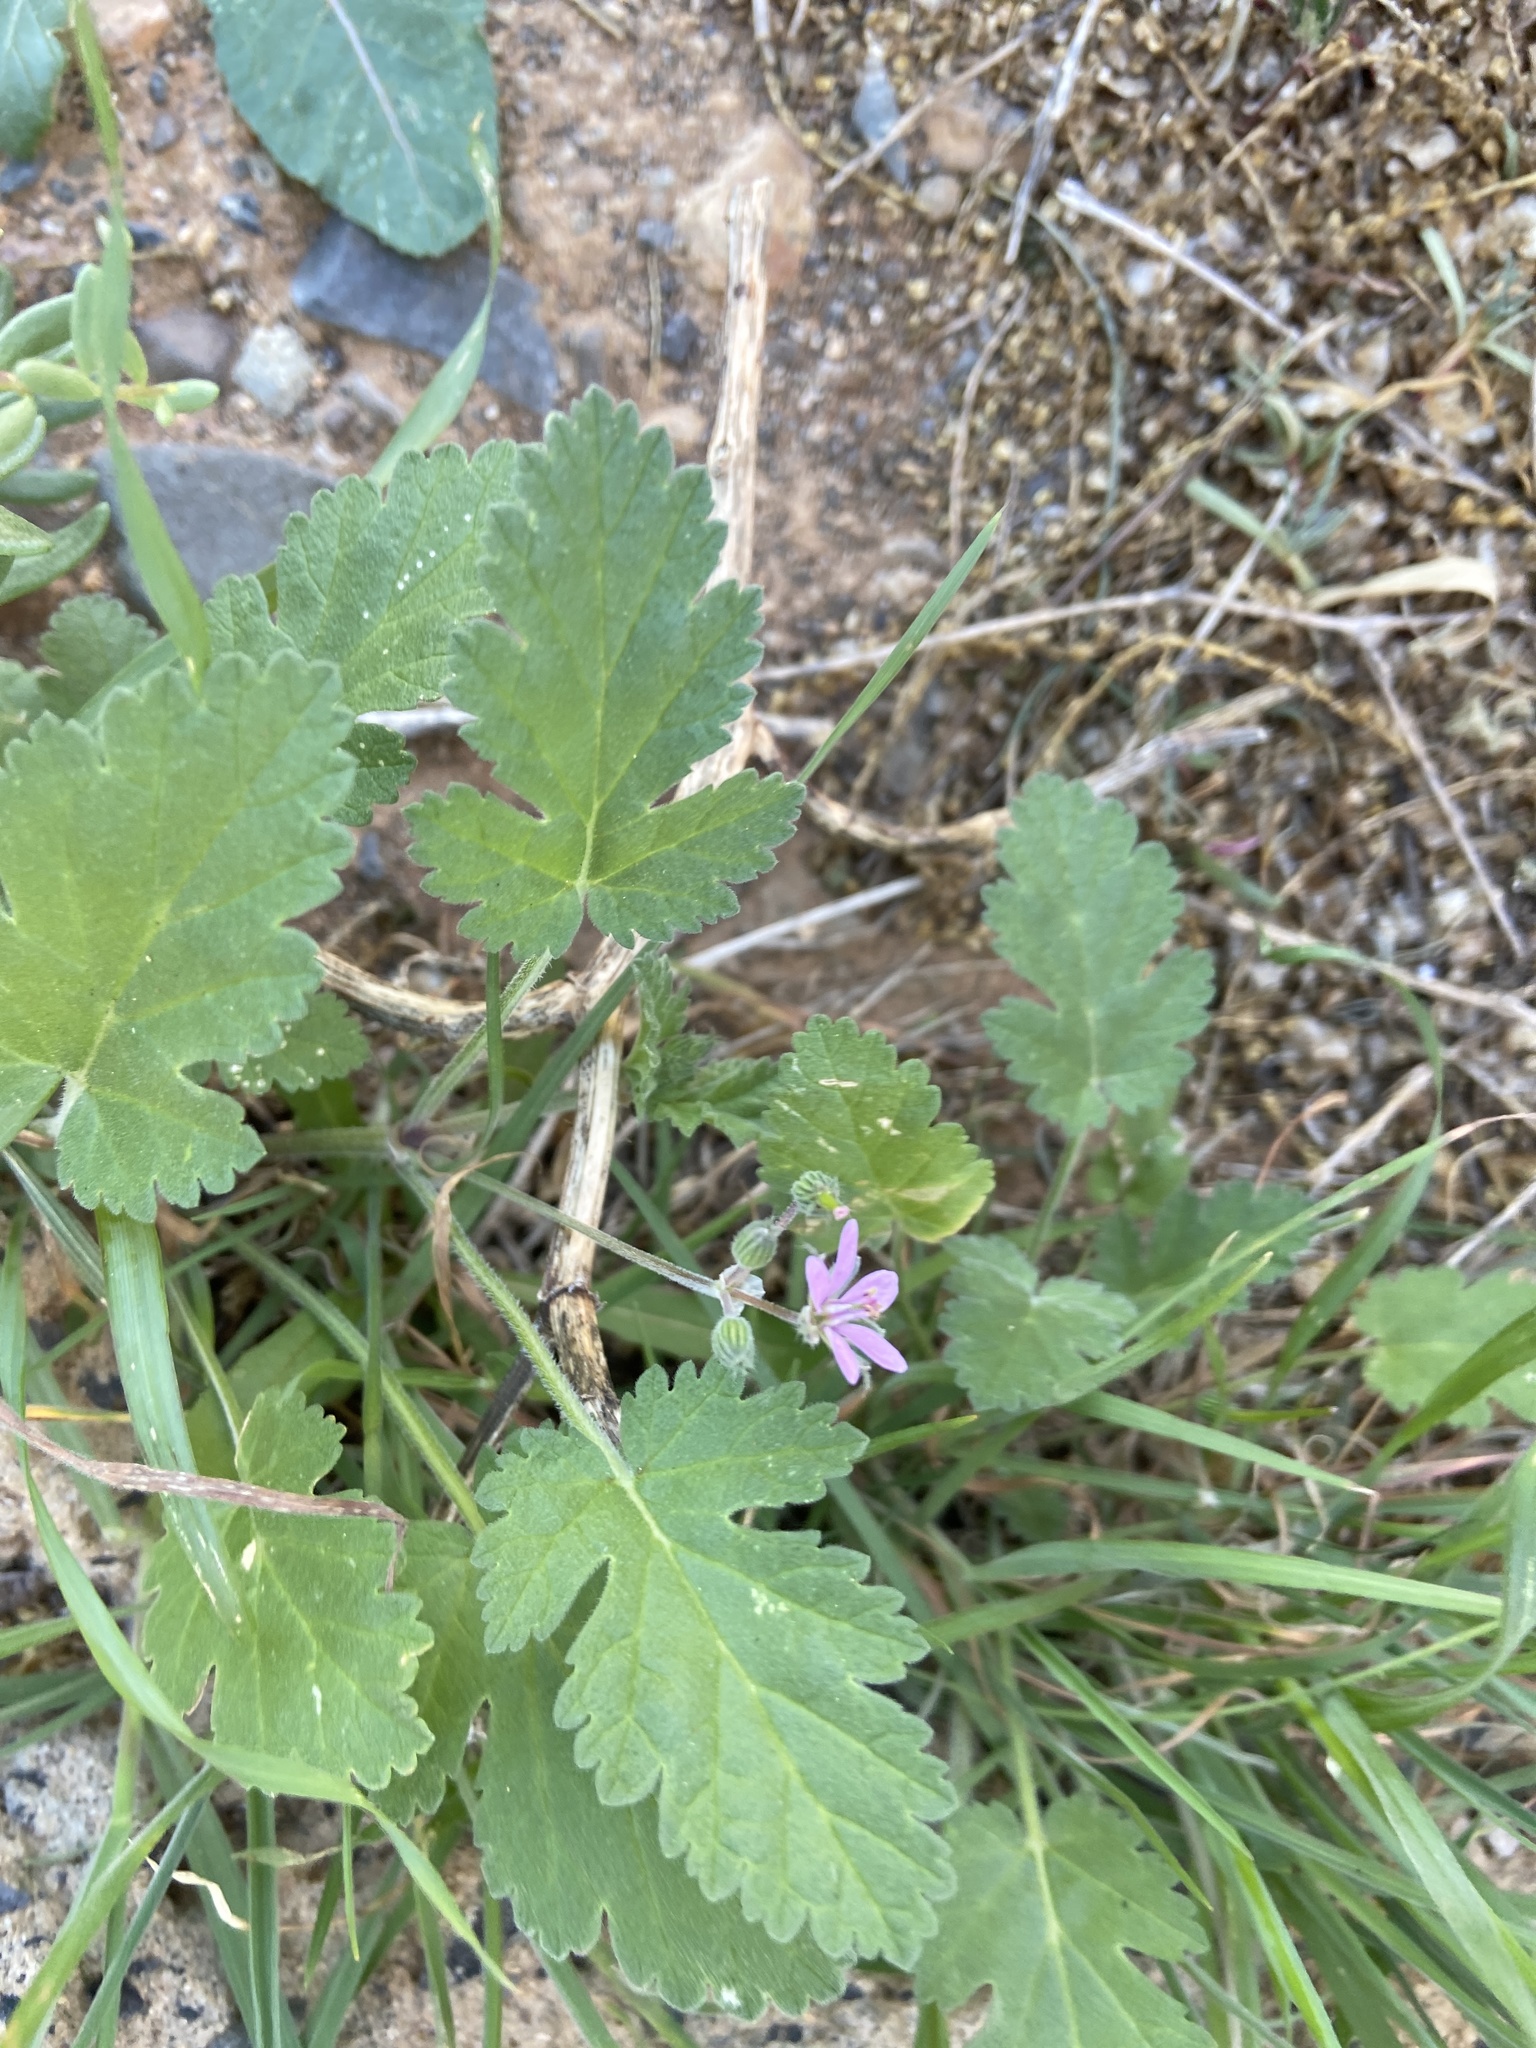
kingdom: Plantae
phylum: Tracheophyta
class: Magnoliopsida
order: Geraniales
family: Geraniaceae
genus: Erodium
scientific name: Erodium neuradifolium
